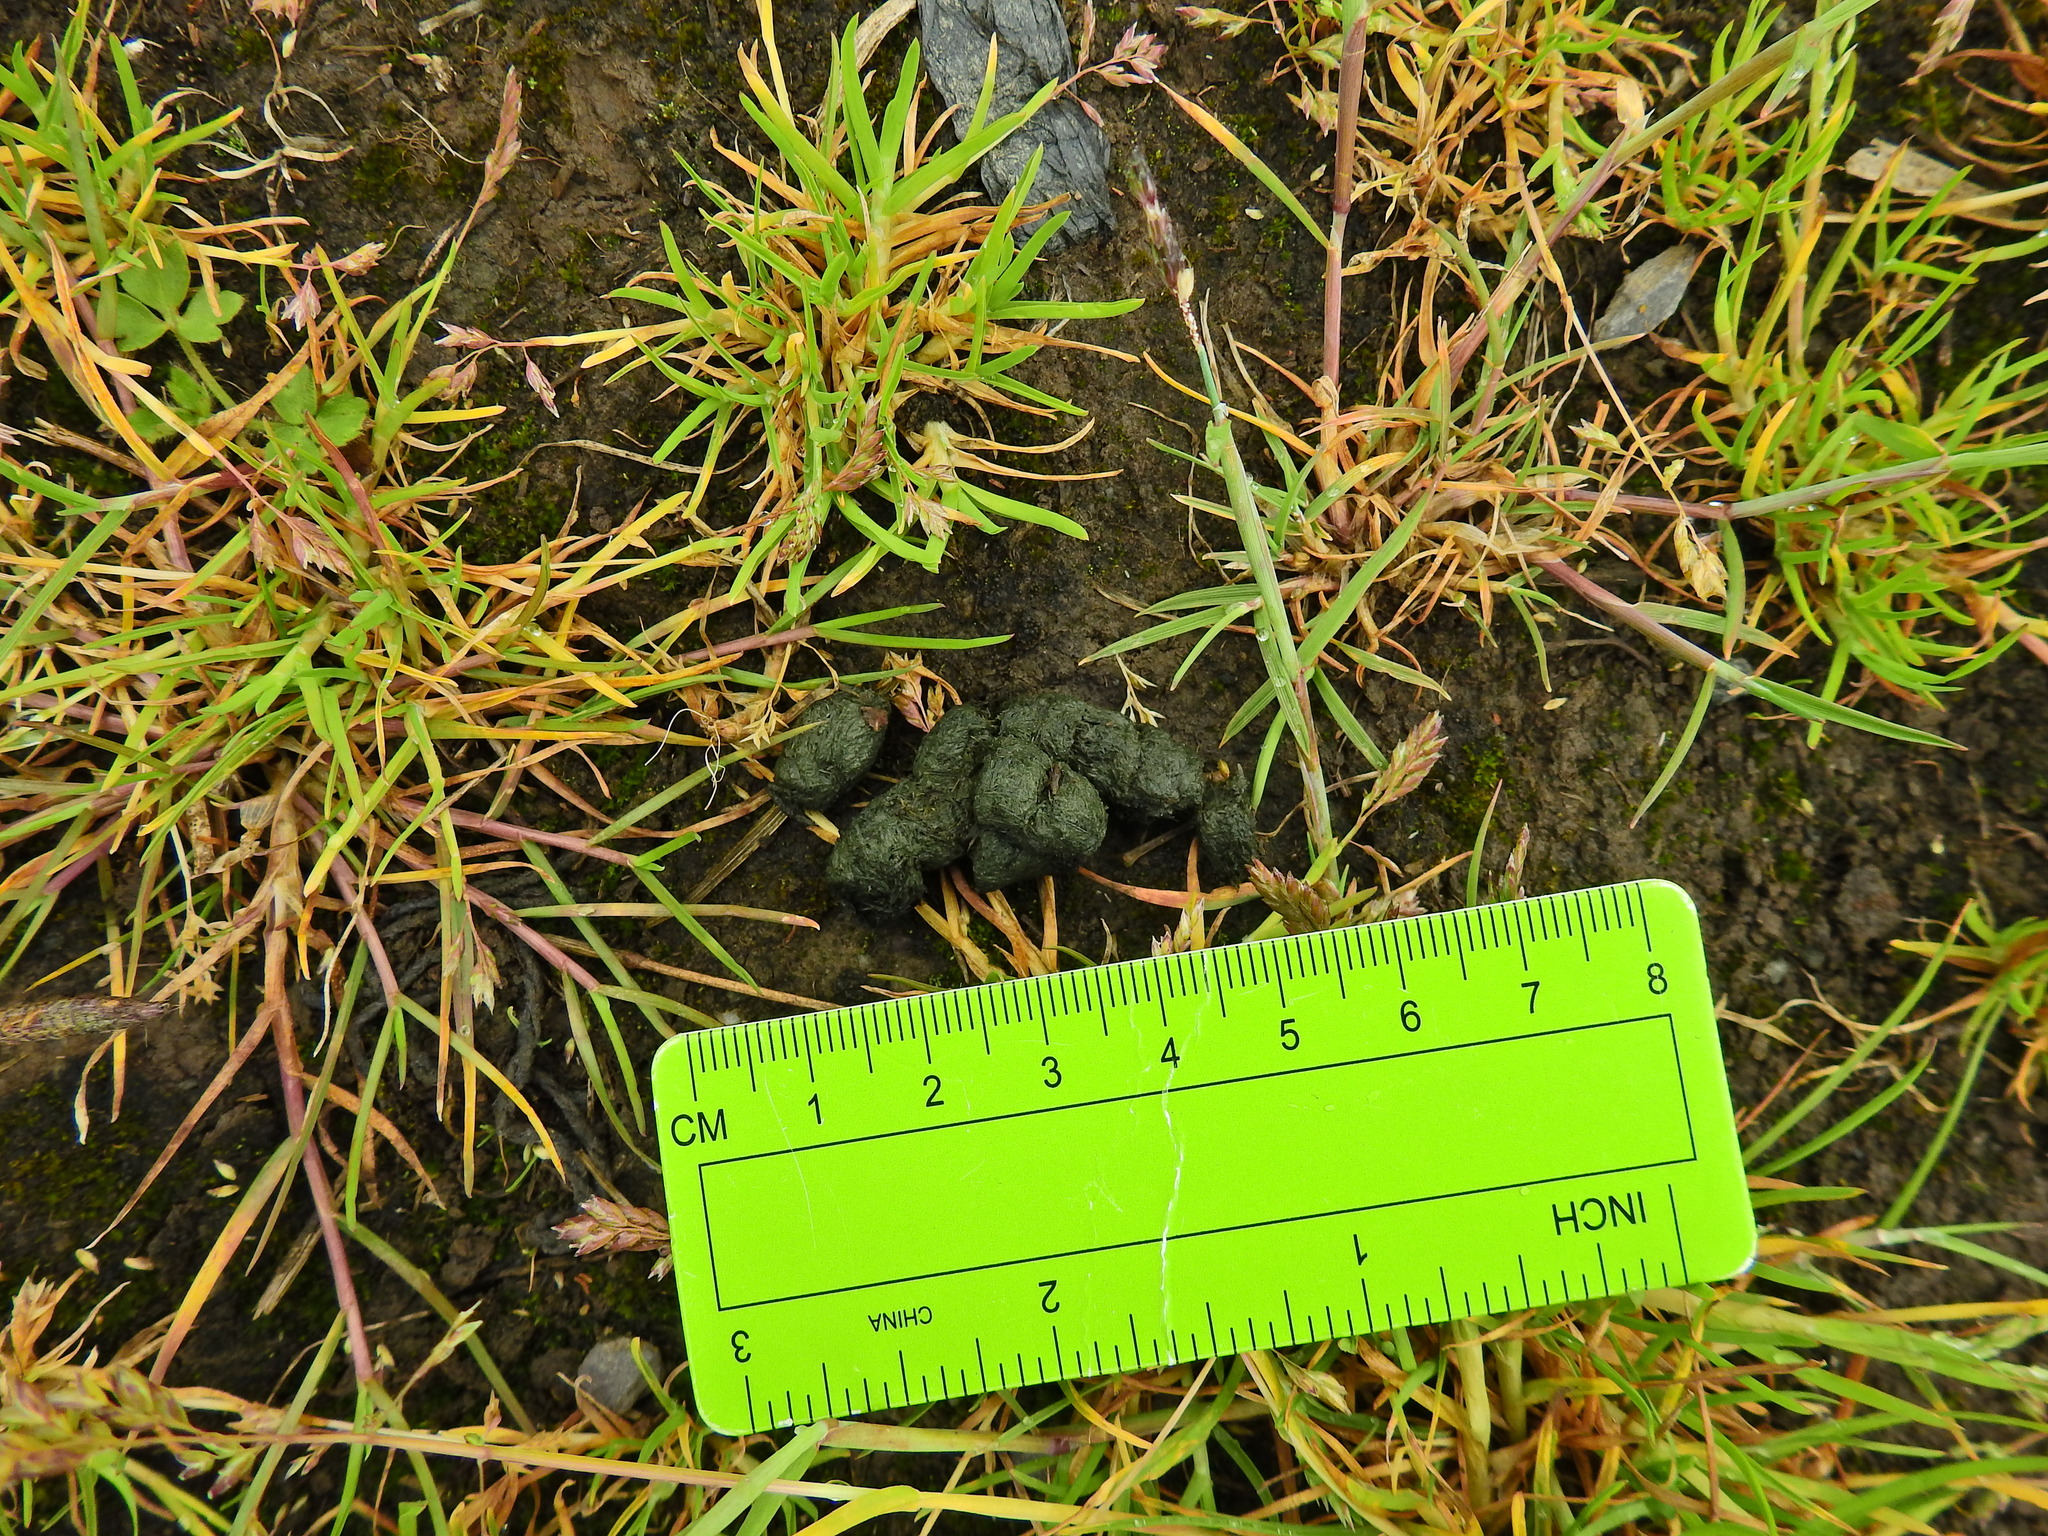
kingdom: Animalia
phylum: Chordata
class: Aves
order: Anseriformes
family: Anatidae
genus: Branta
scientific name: Branta canadensis
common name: Canada goose
